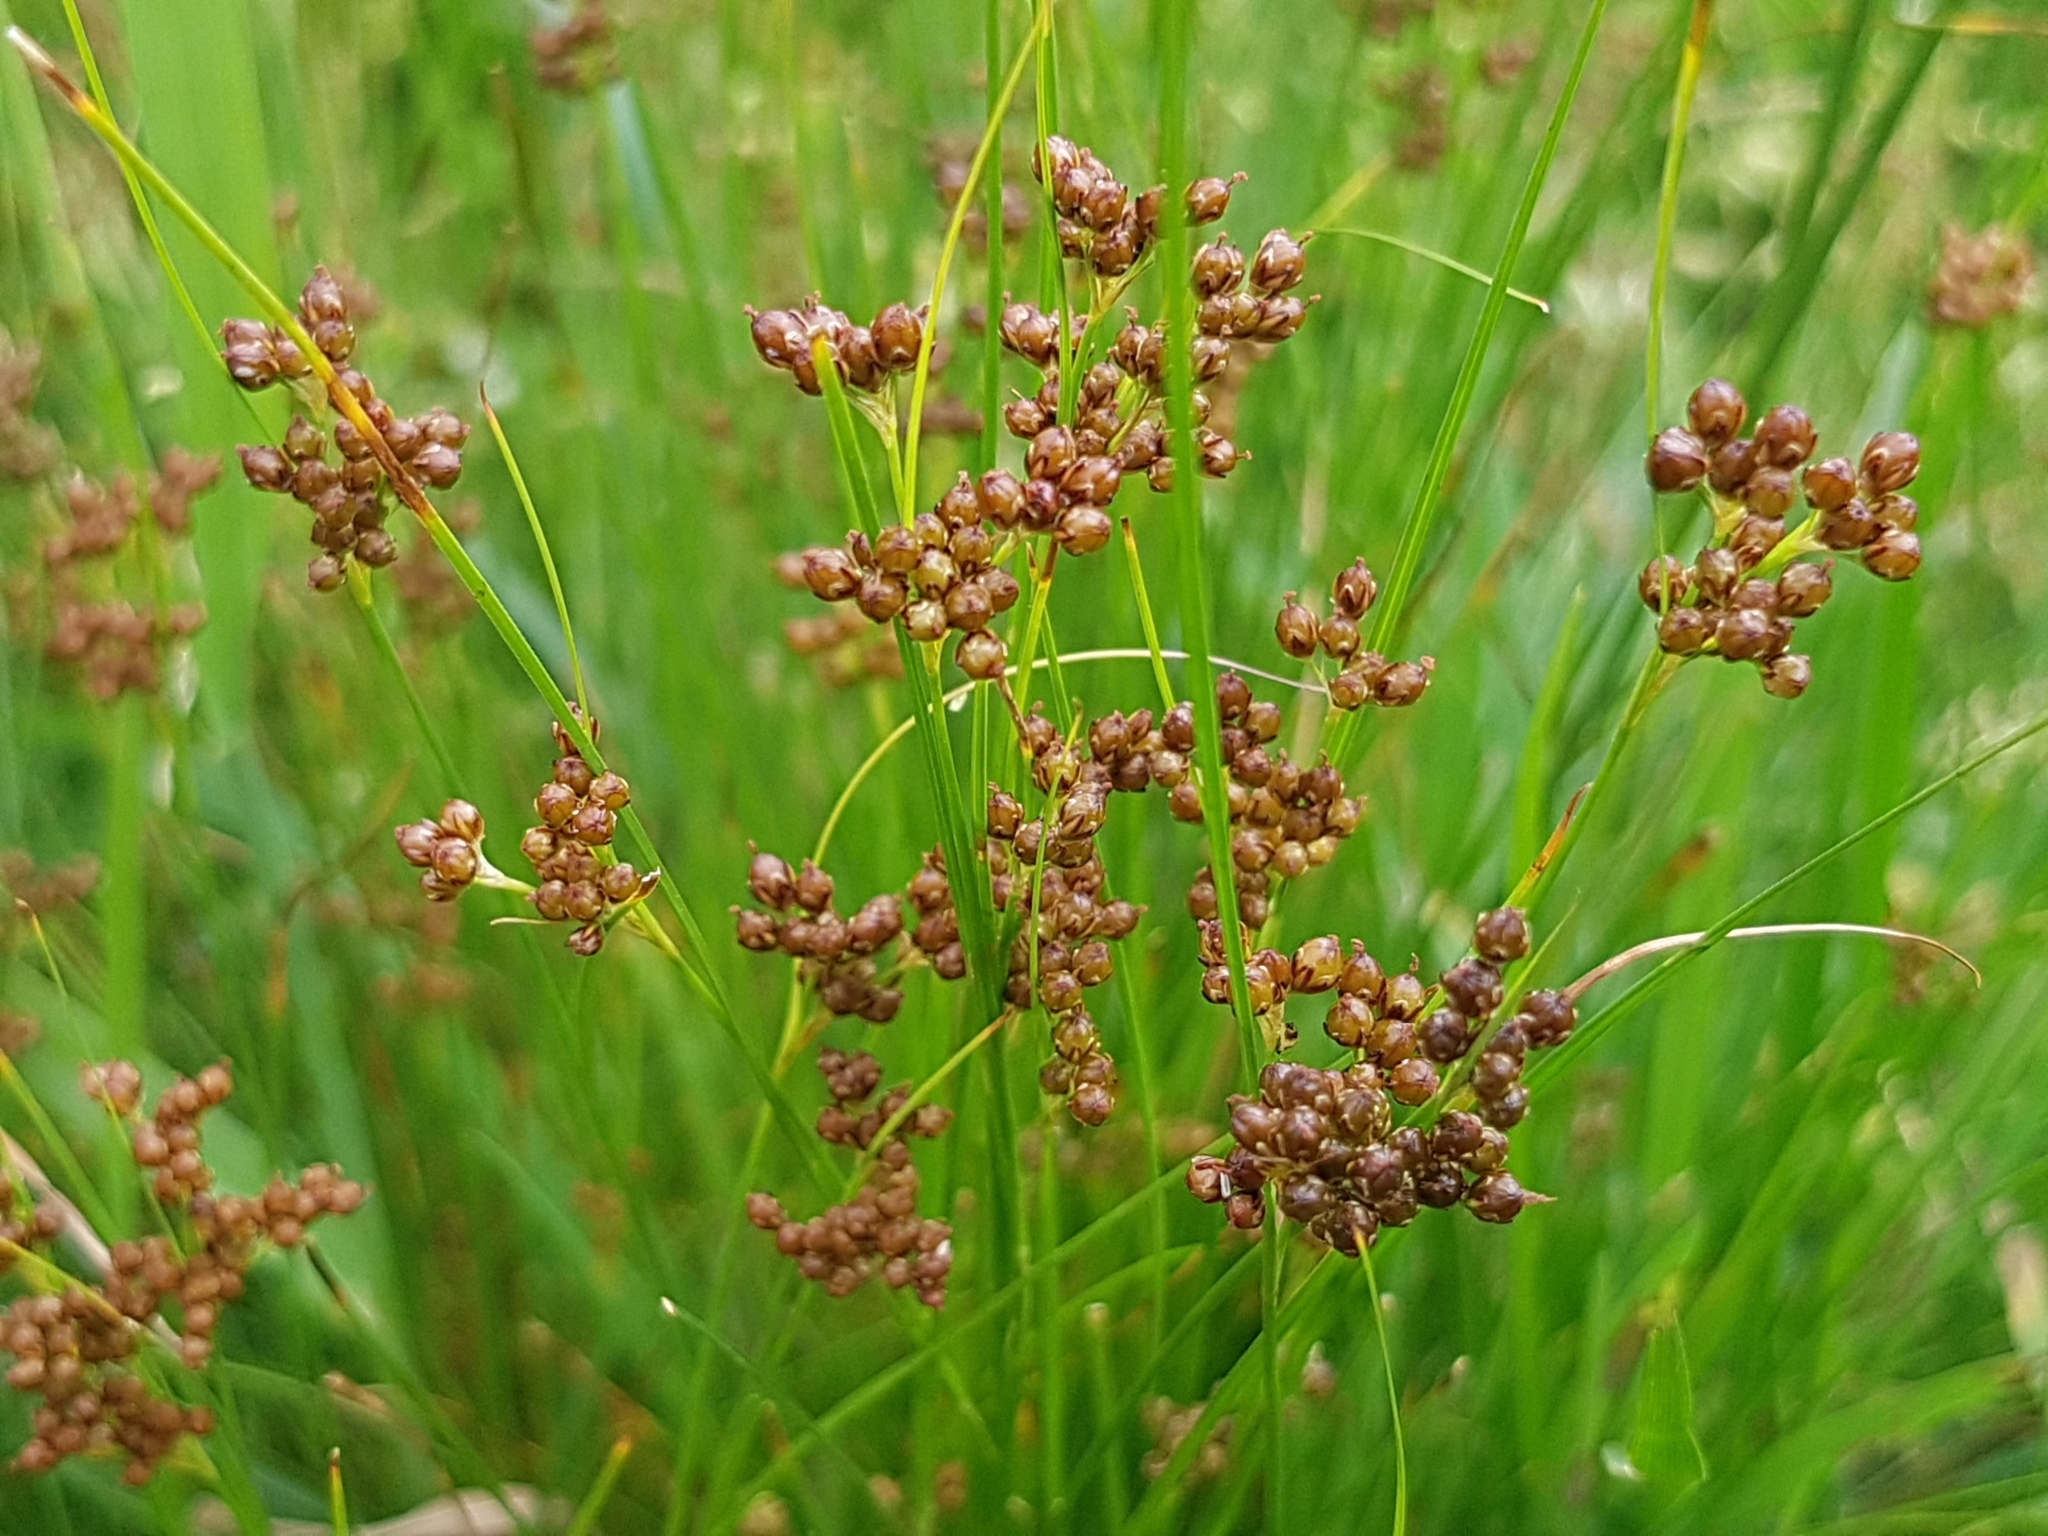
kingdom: Plantae
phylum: Tracheophyta
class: Liliopsida
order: Poales
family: Juncaceae
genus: Juncus
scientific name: Juncus compressus
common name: Round-fruited rush
